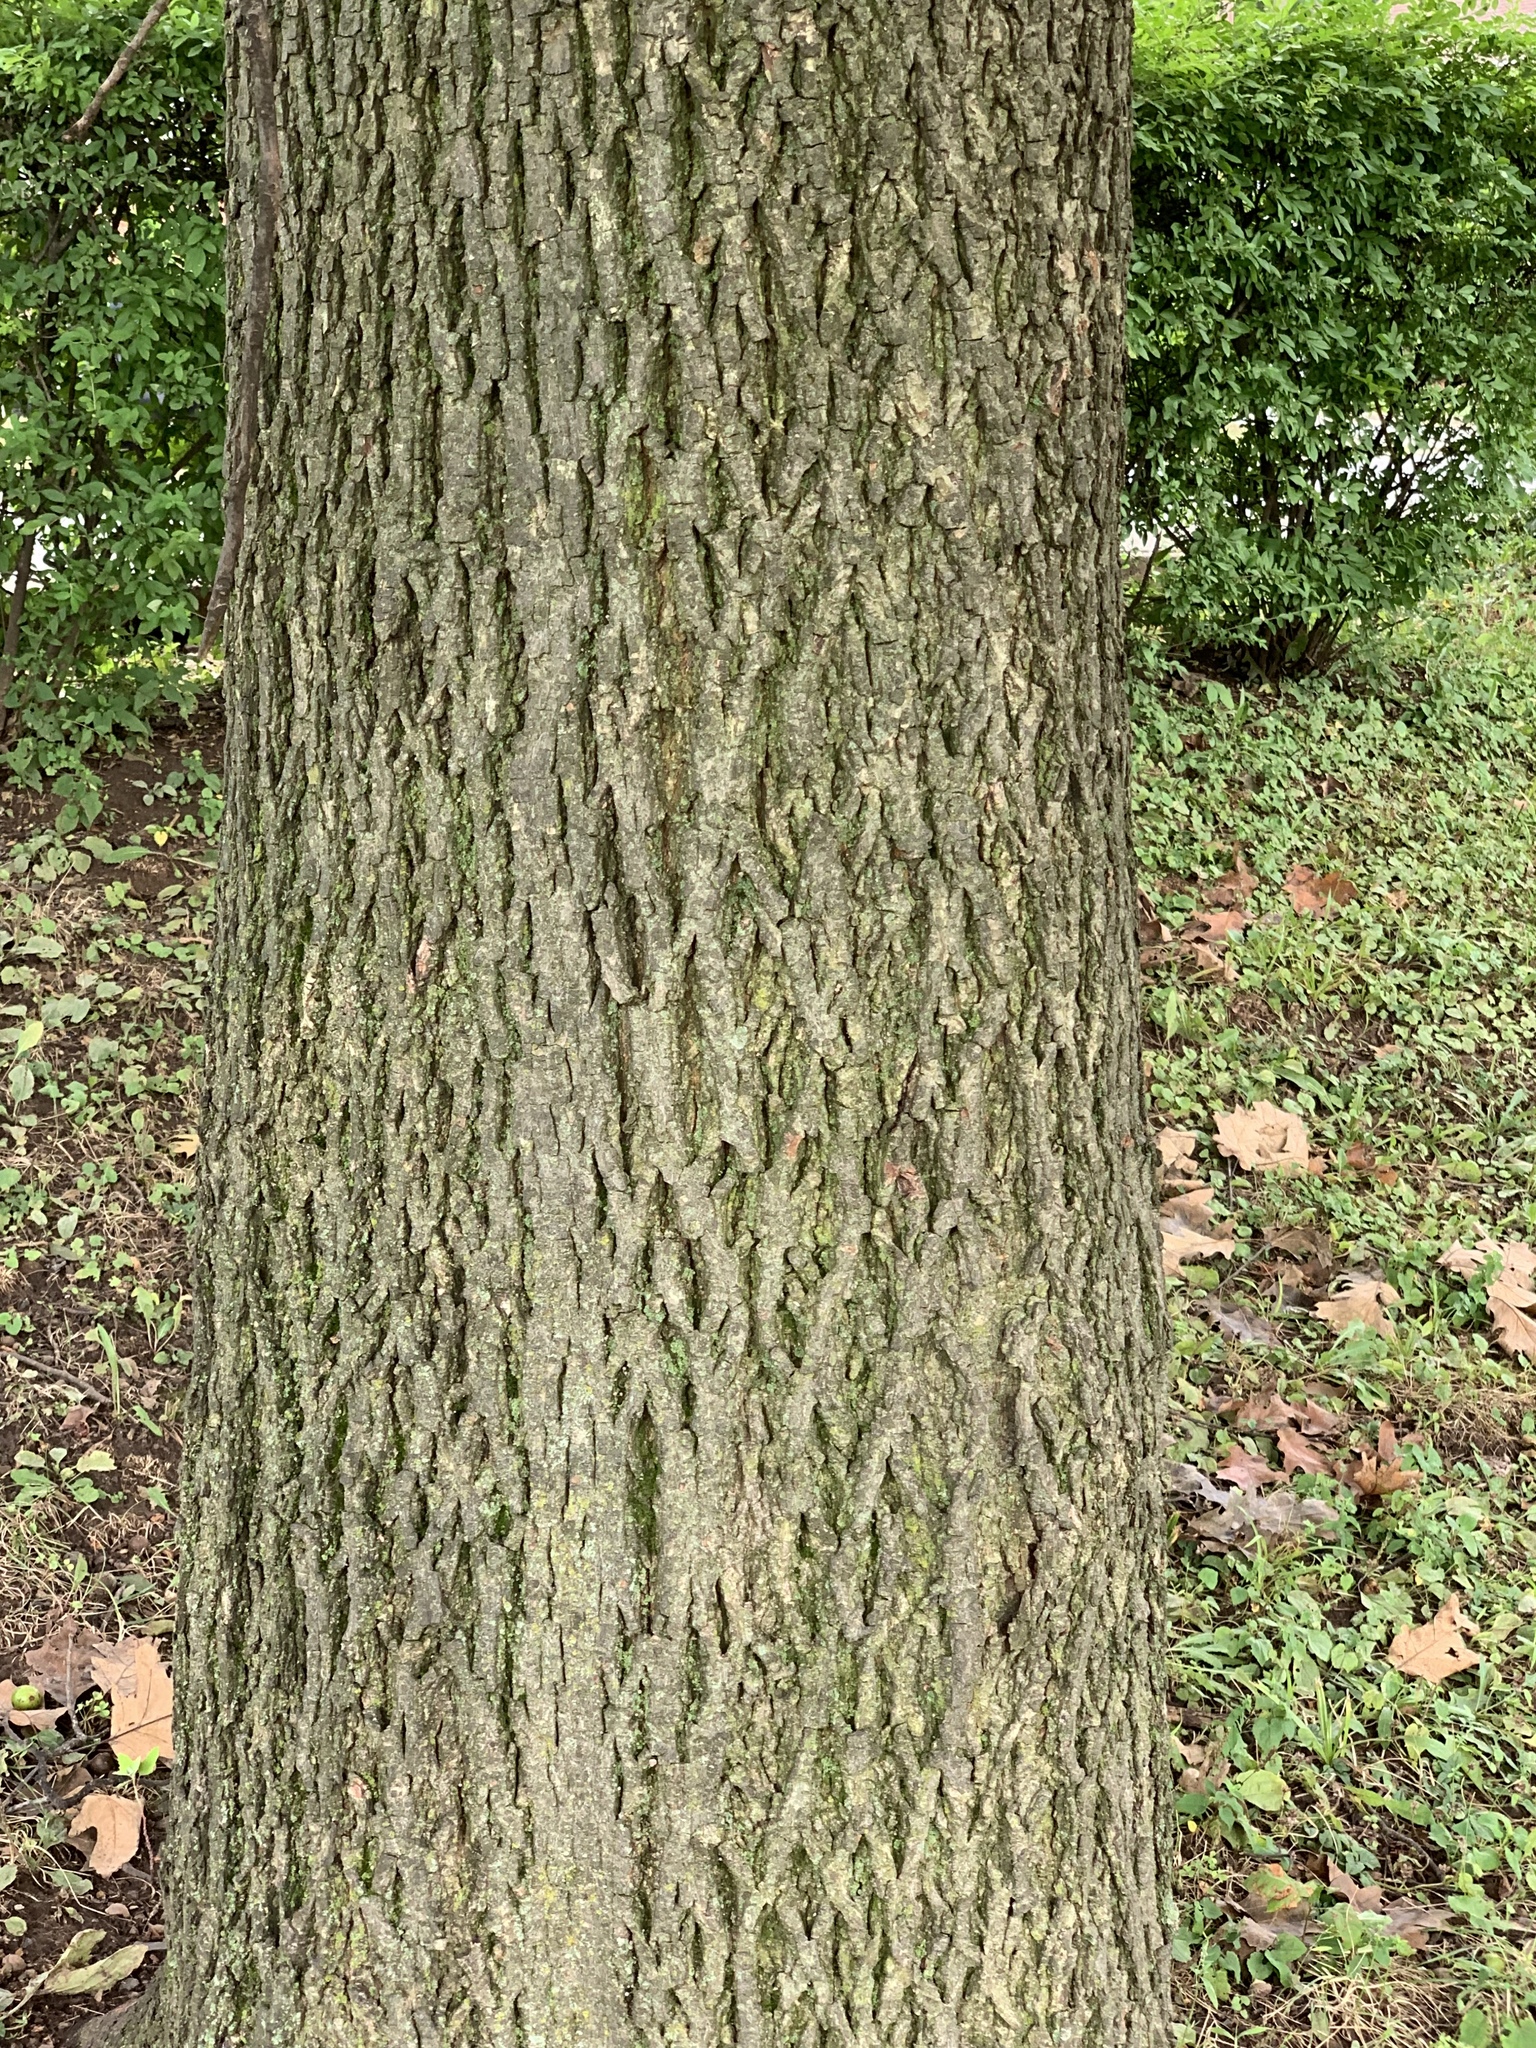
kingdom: Plantae
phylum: Tracheophyta
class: Magnoliopsida
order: Fagales
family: Juglandaceae
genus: Carya
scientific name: Carya cordiformis
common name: Bitternut hickory
